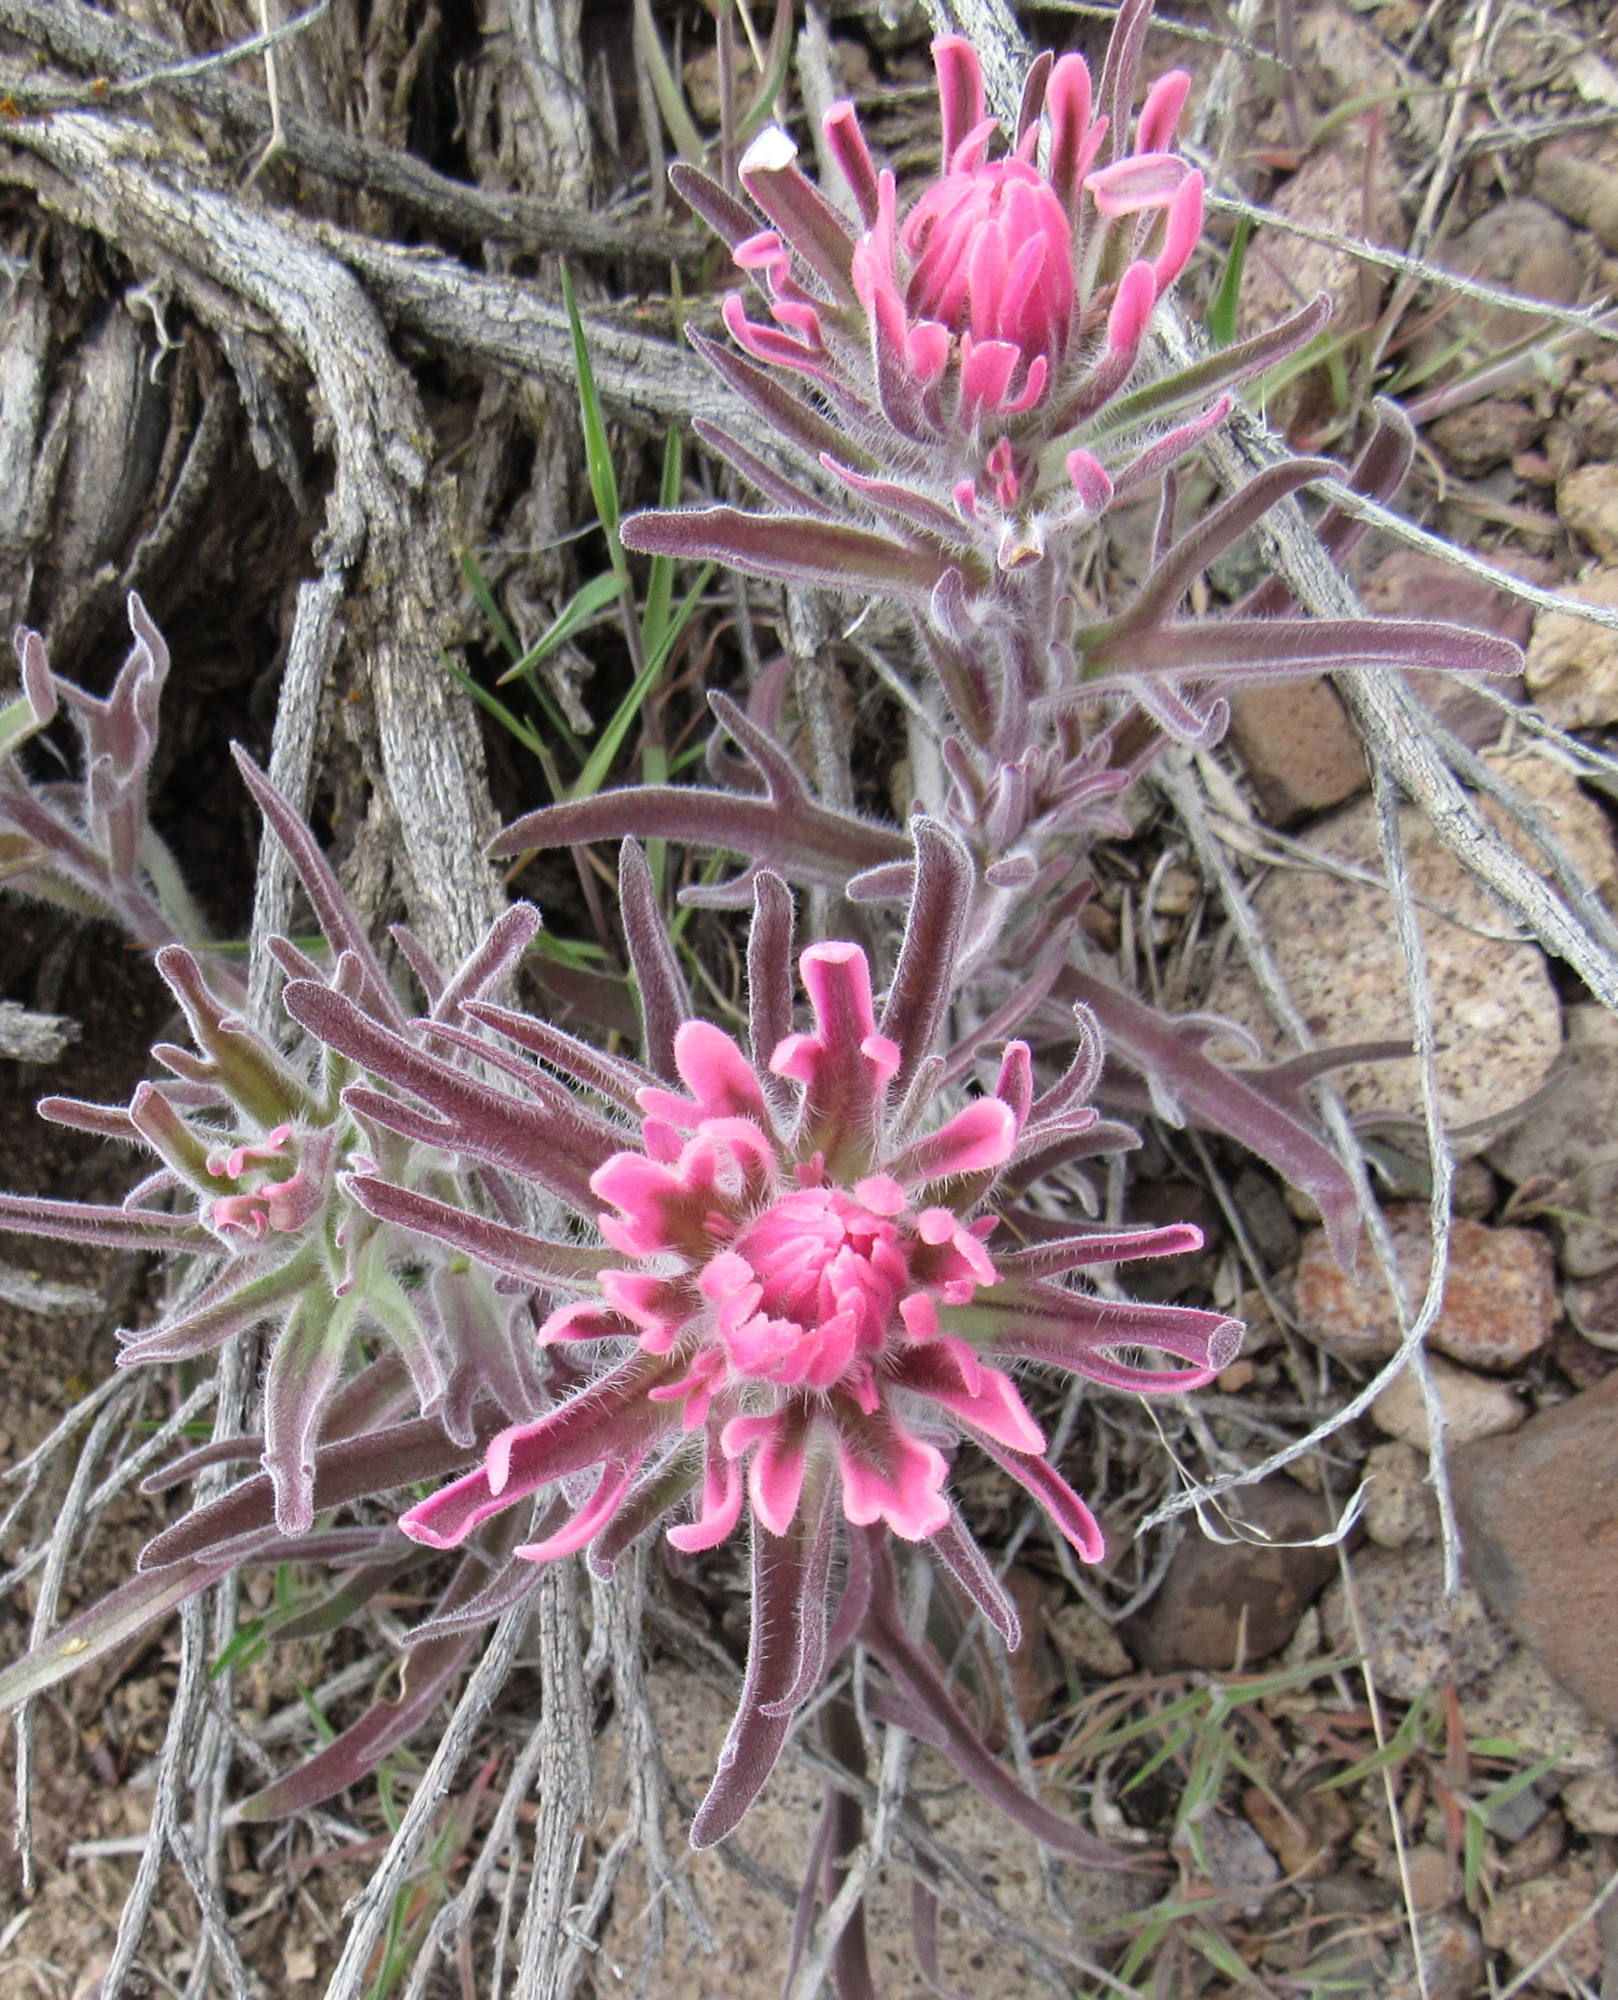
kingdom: Plantae
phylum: Tracheophyta
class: Magnoliopsida
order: Lamiales
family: Orobanchaceae
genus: Castilleja
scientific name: Castilleja angustifolia
